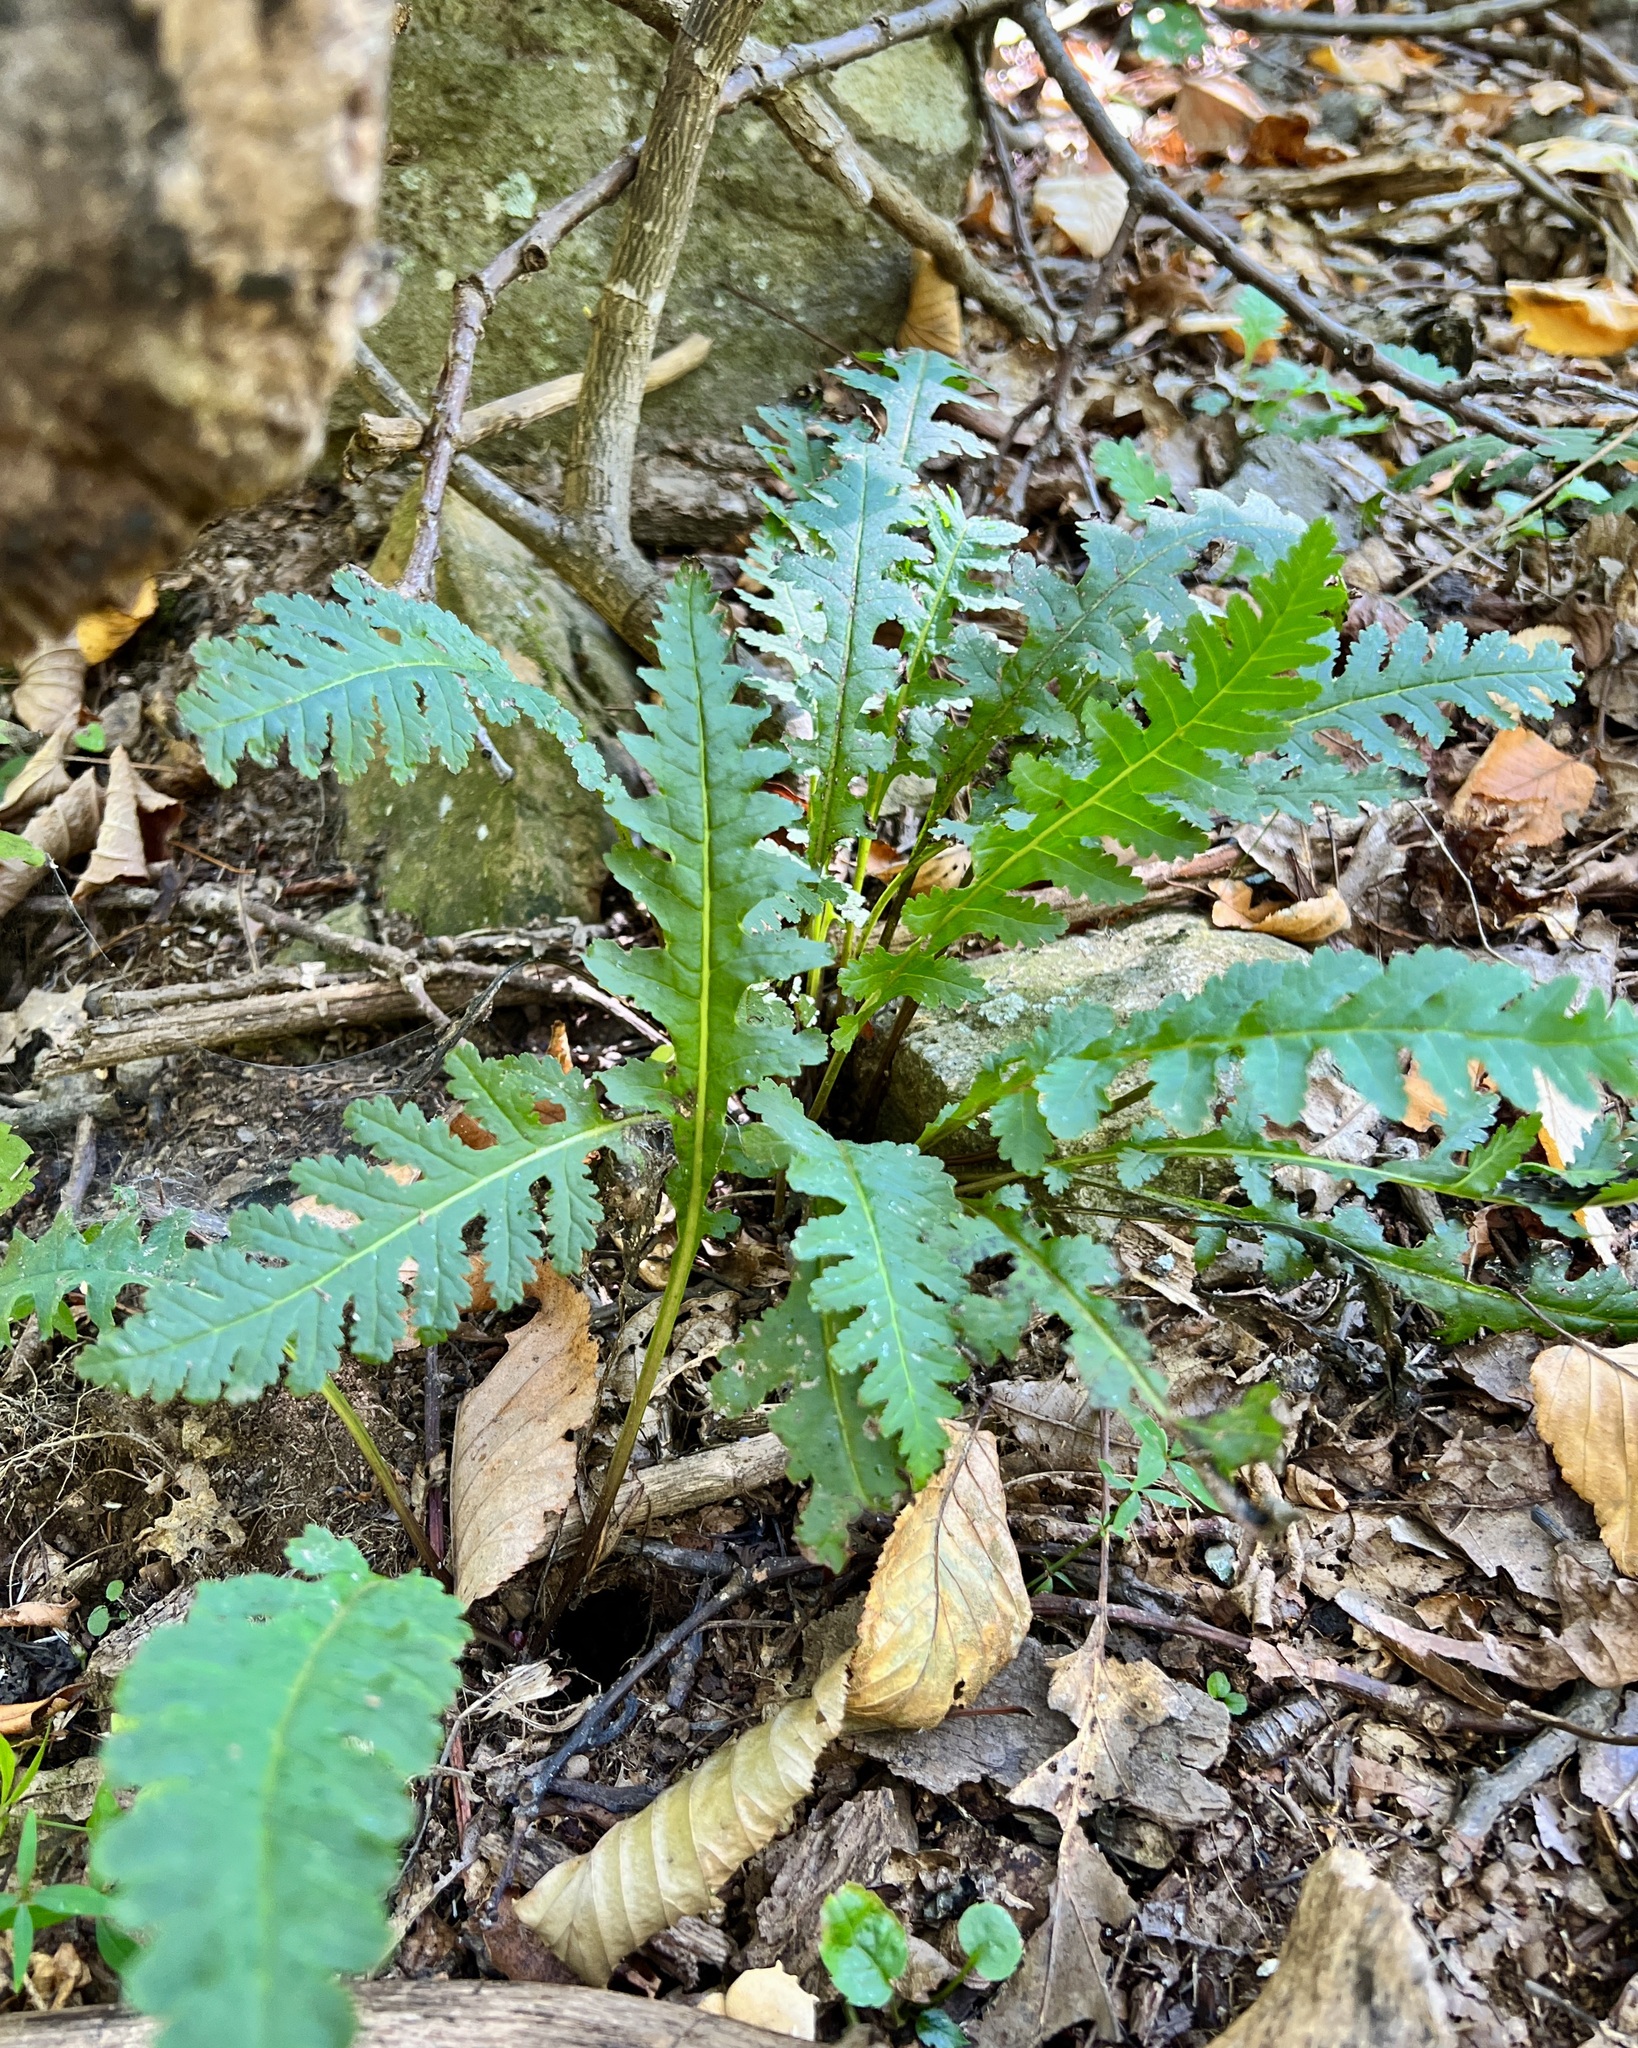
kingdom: Plantae
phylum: Tracheophyta
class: Magnoliopsida
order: Lamiales
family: Orobanchaceae
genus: Pedicularis
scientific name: Pedicularis canadensis
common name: Early lousewort
